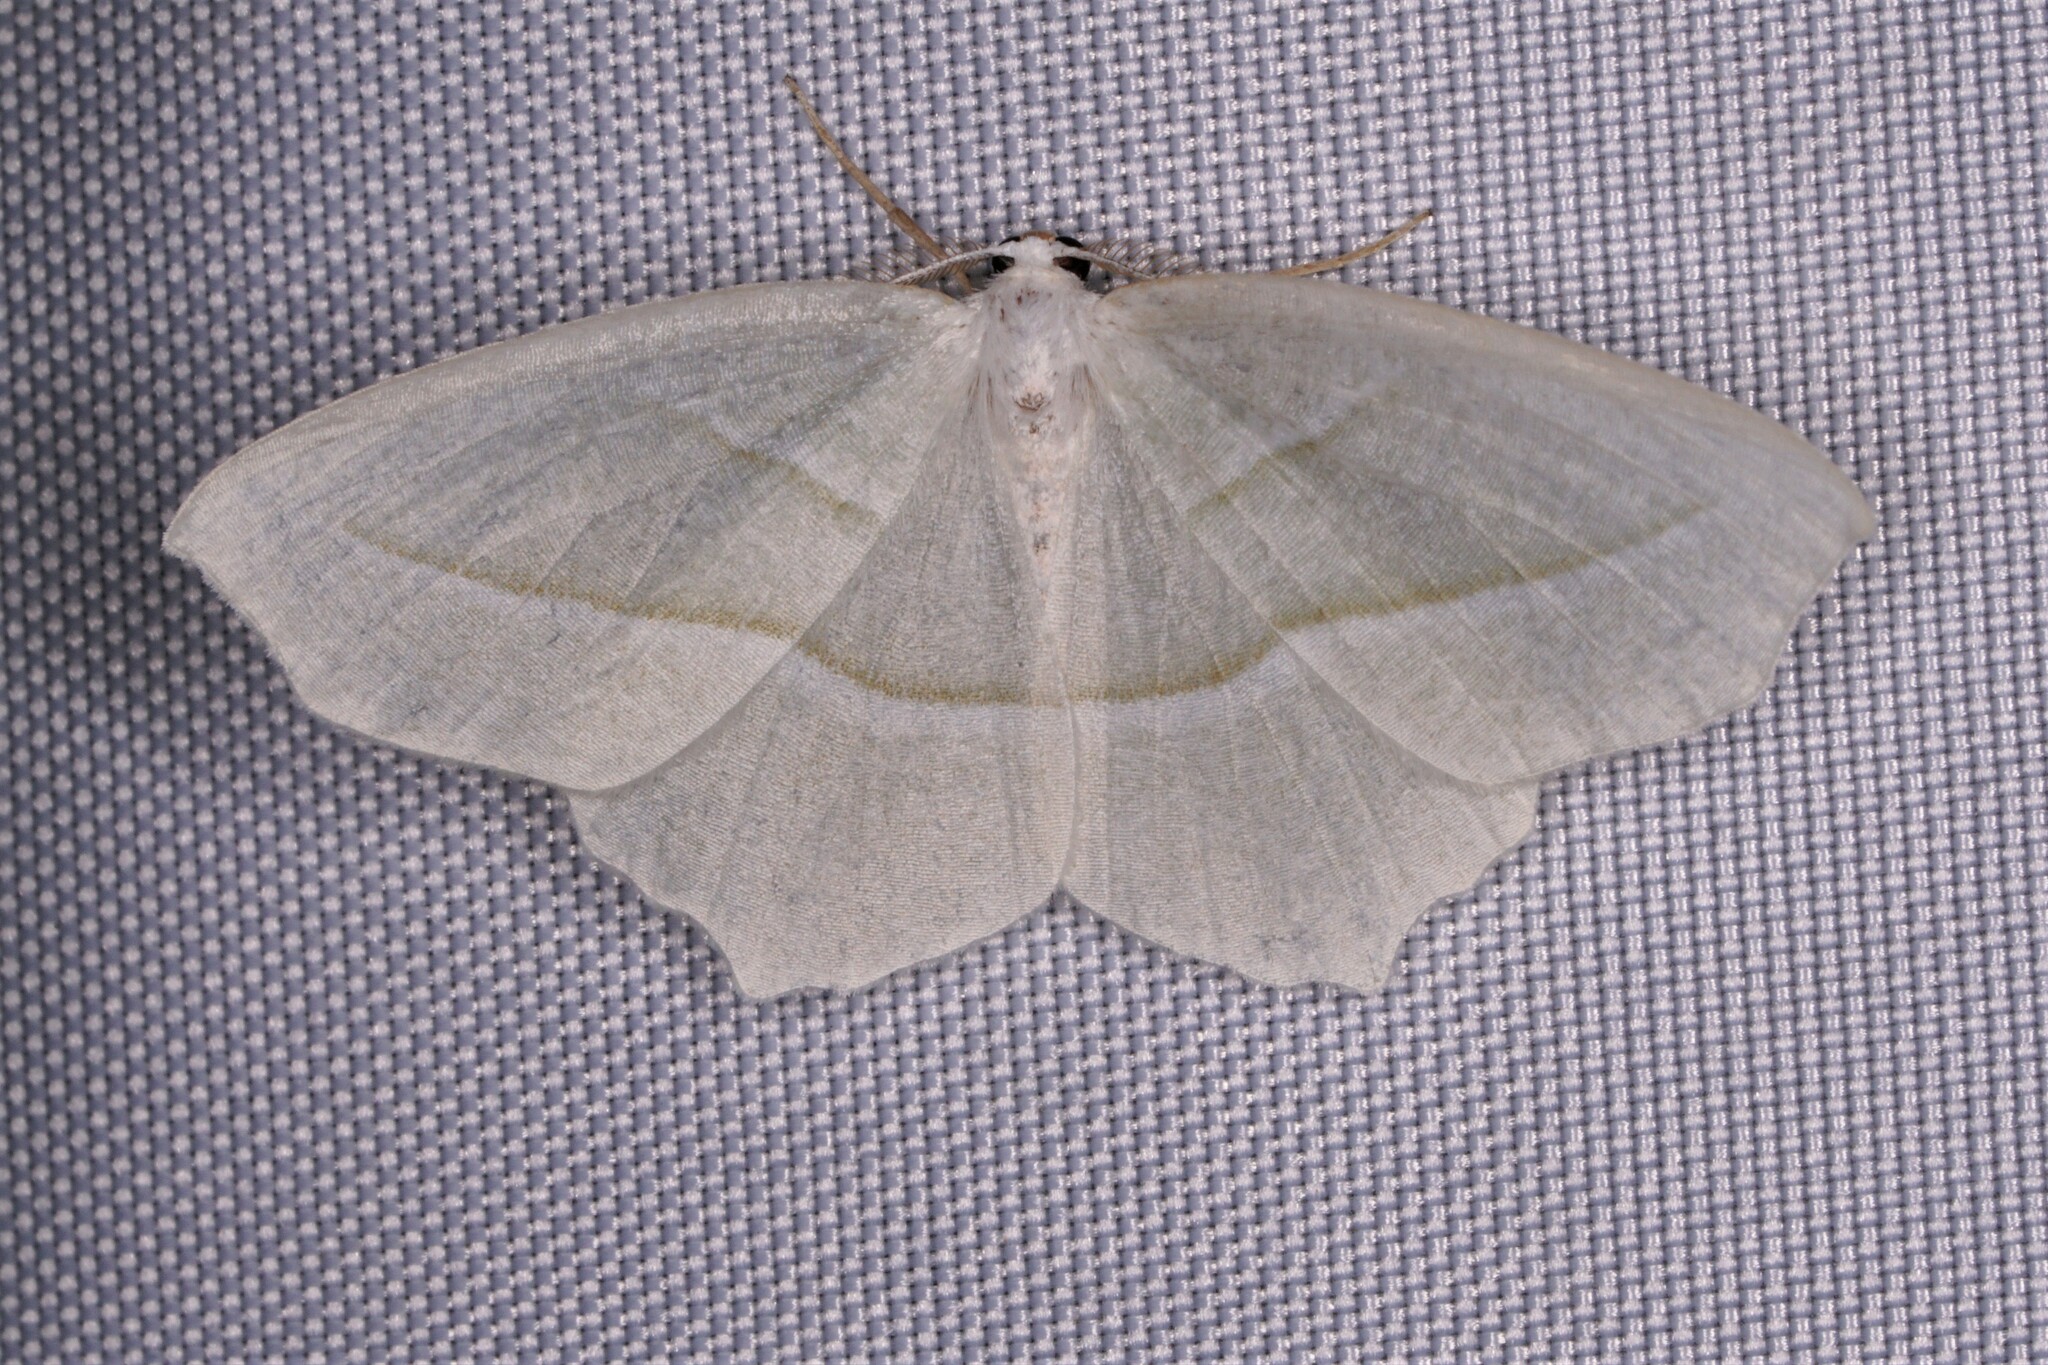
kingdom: Animalia
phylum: Arthropoda
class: Insecta
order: Lepidoptera
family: Geometridae
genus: Campaea
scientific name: Campaea perlata
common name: Fringed looper
